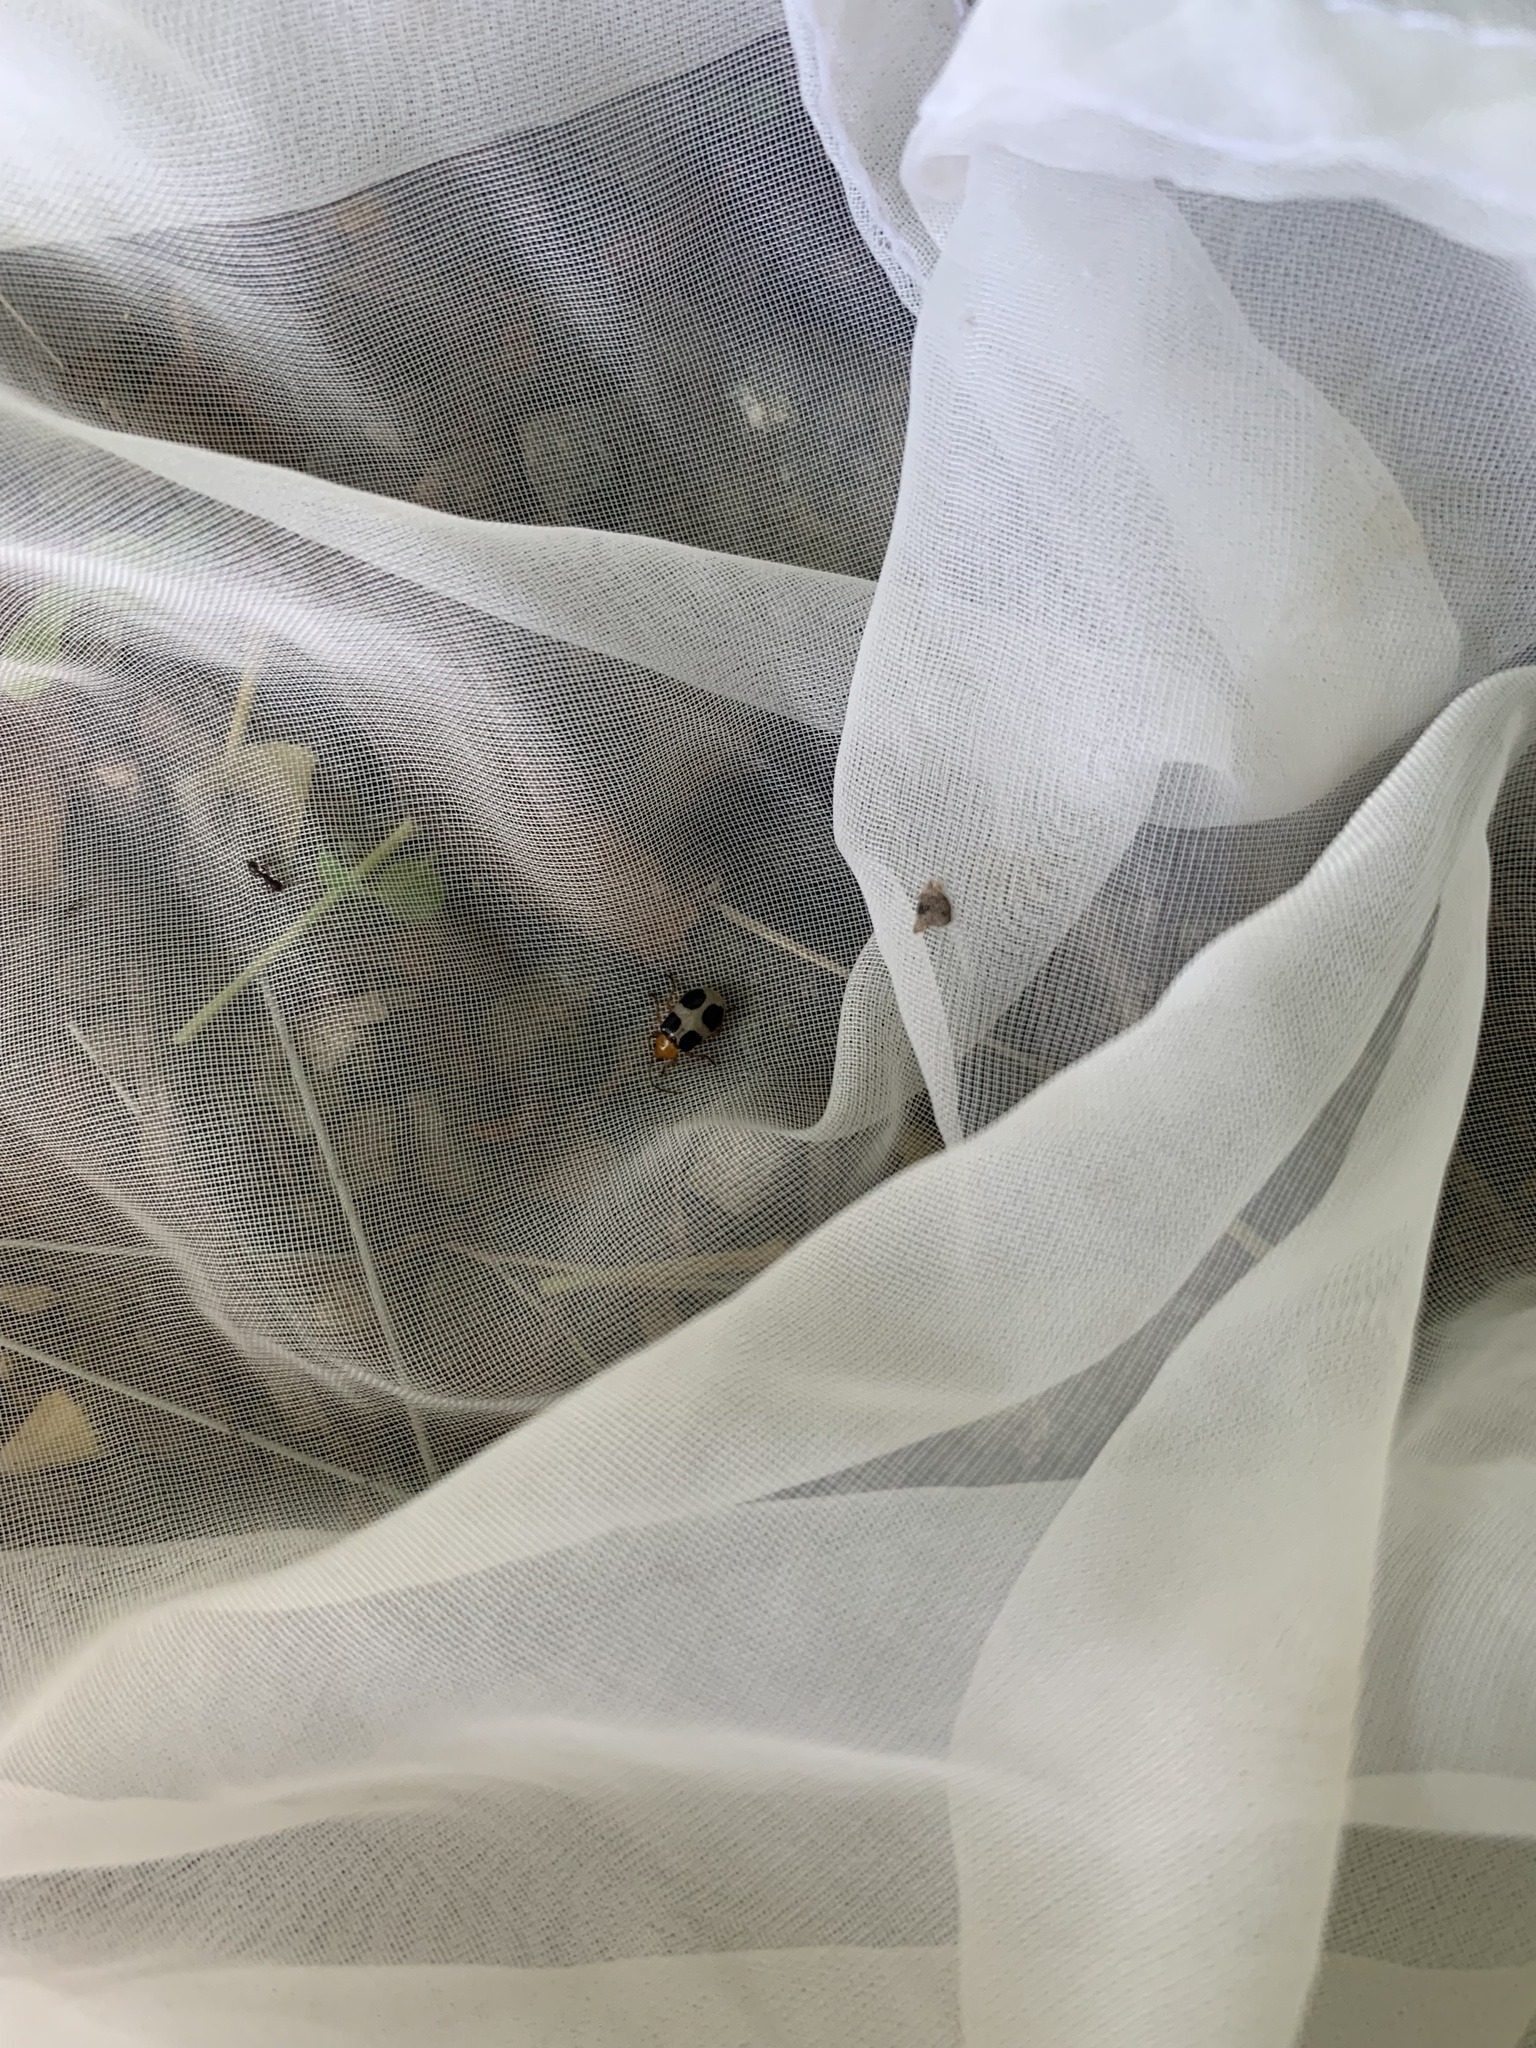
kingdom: Animalia
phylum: Arthropoda
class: Insecta
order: Coleoptera
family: Chrysomelidae
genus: Paridea
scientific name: Paridea
